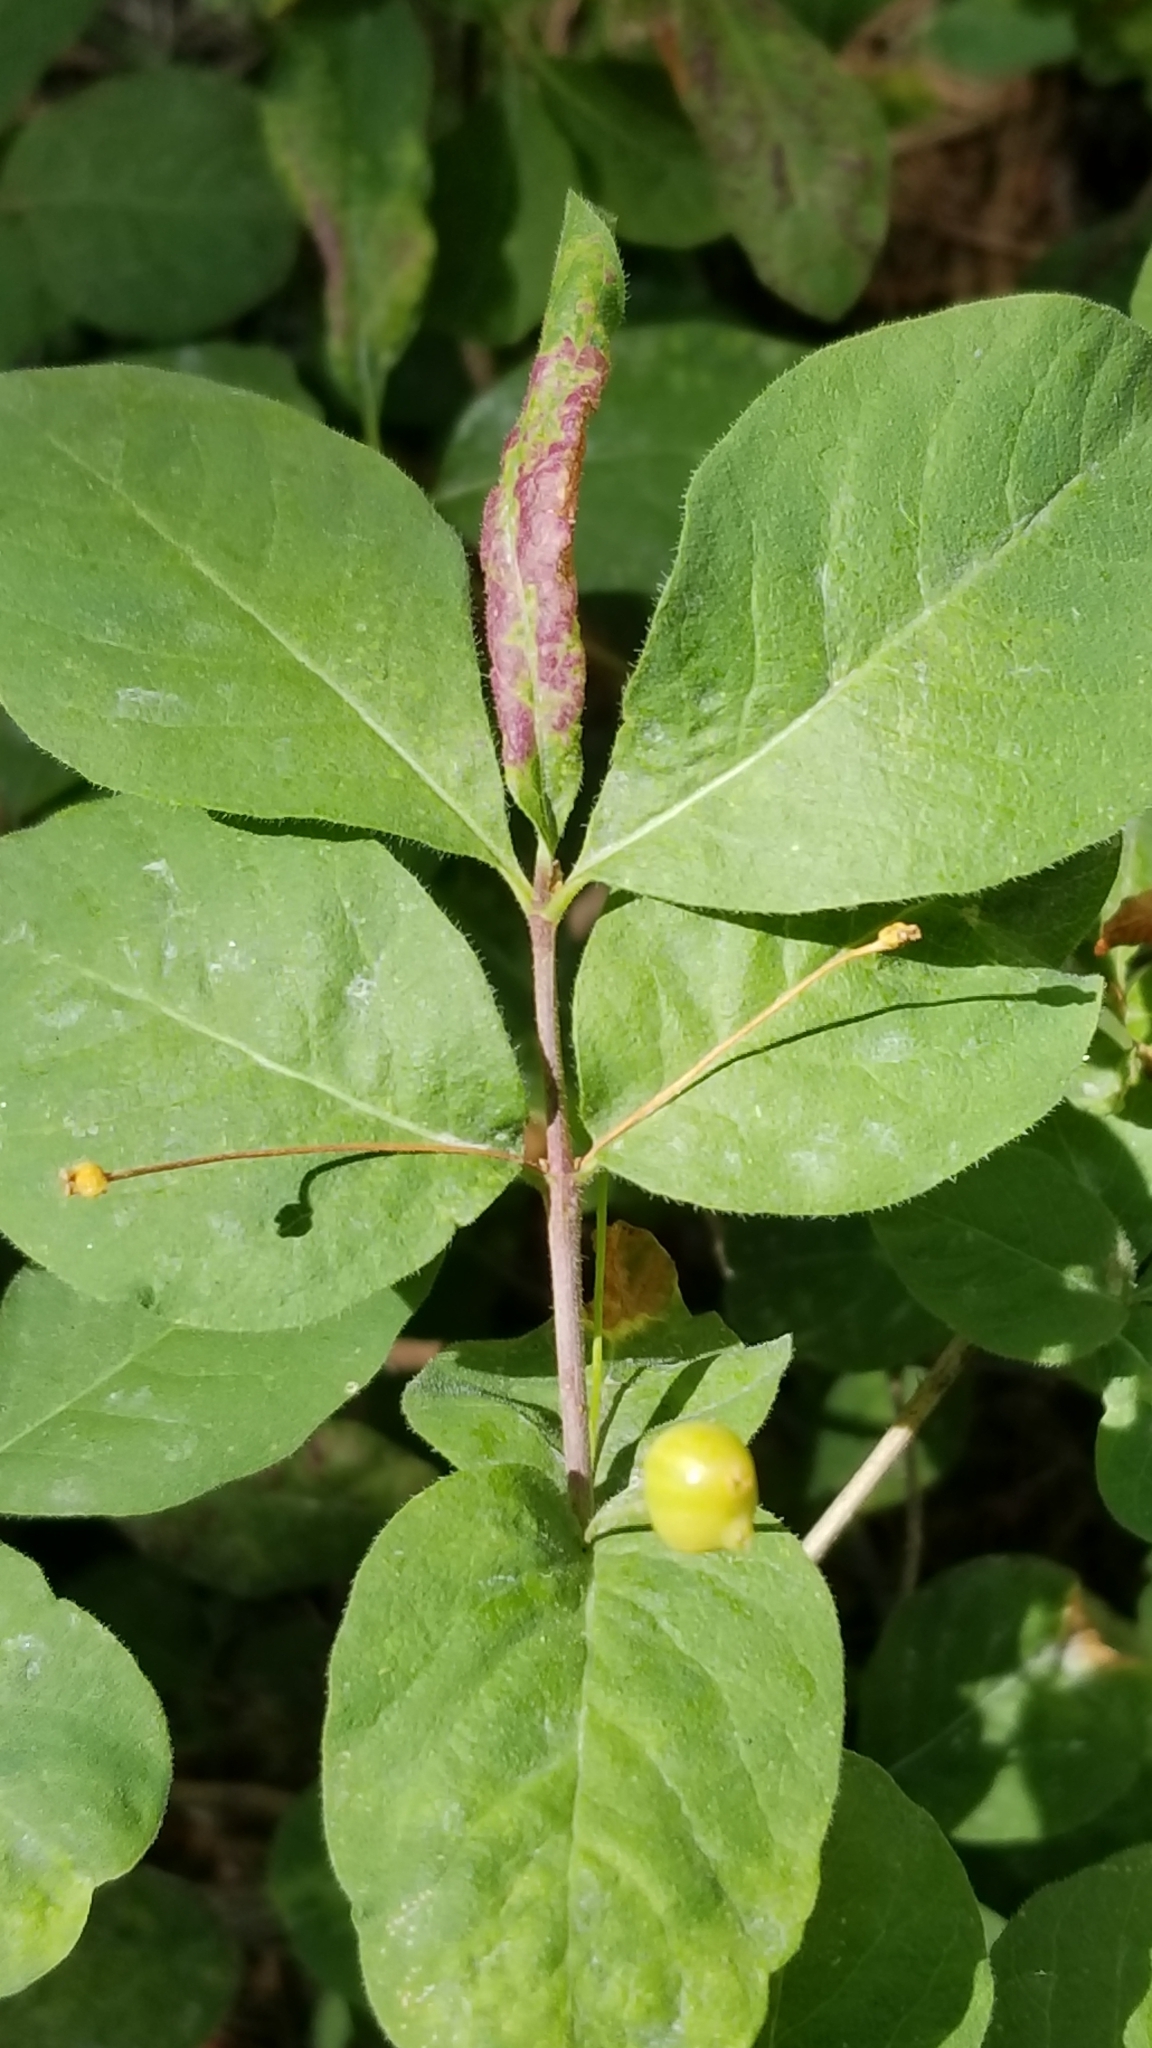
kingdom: Plantae
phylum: Tracheophyta
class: Magnoliopsida
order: Dipsacales
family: Caprifoliaceae
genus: Lonicera
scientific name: Lonicera conjugialis
